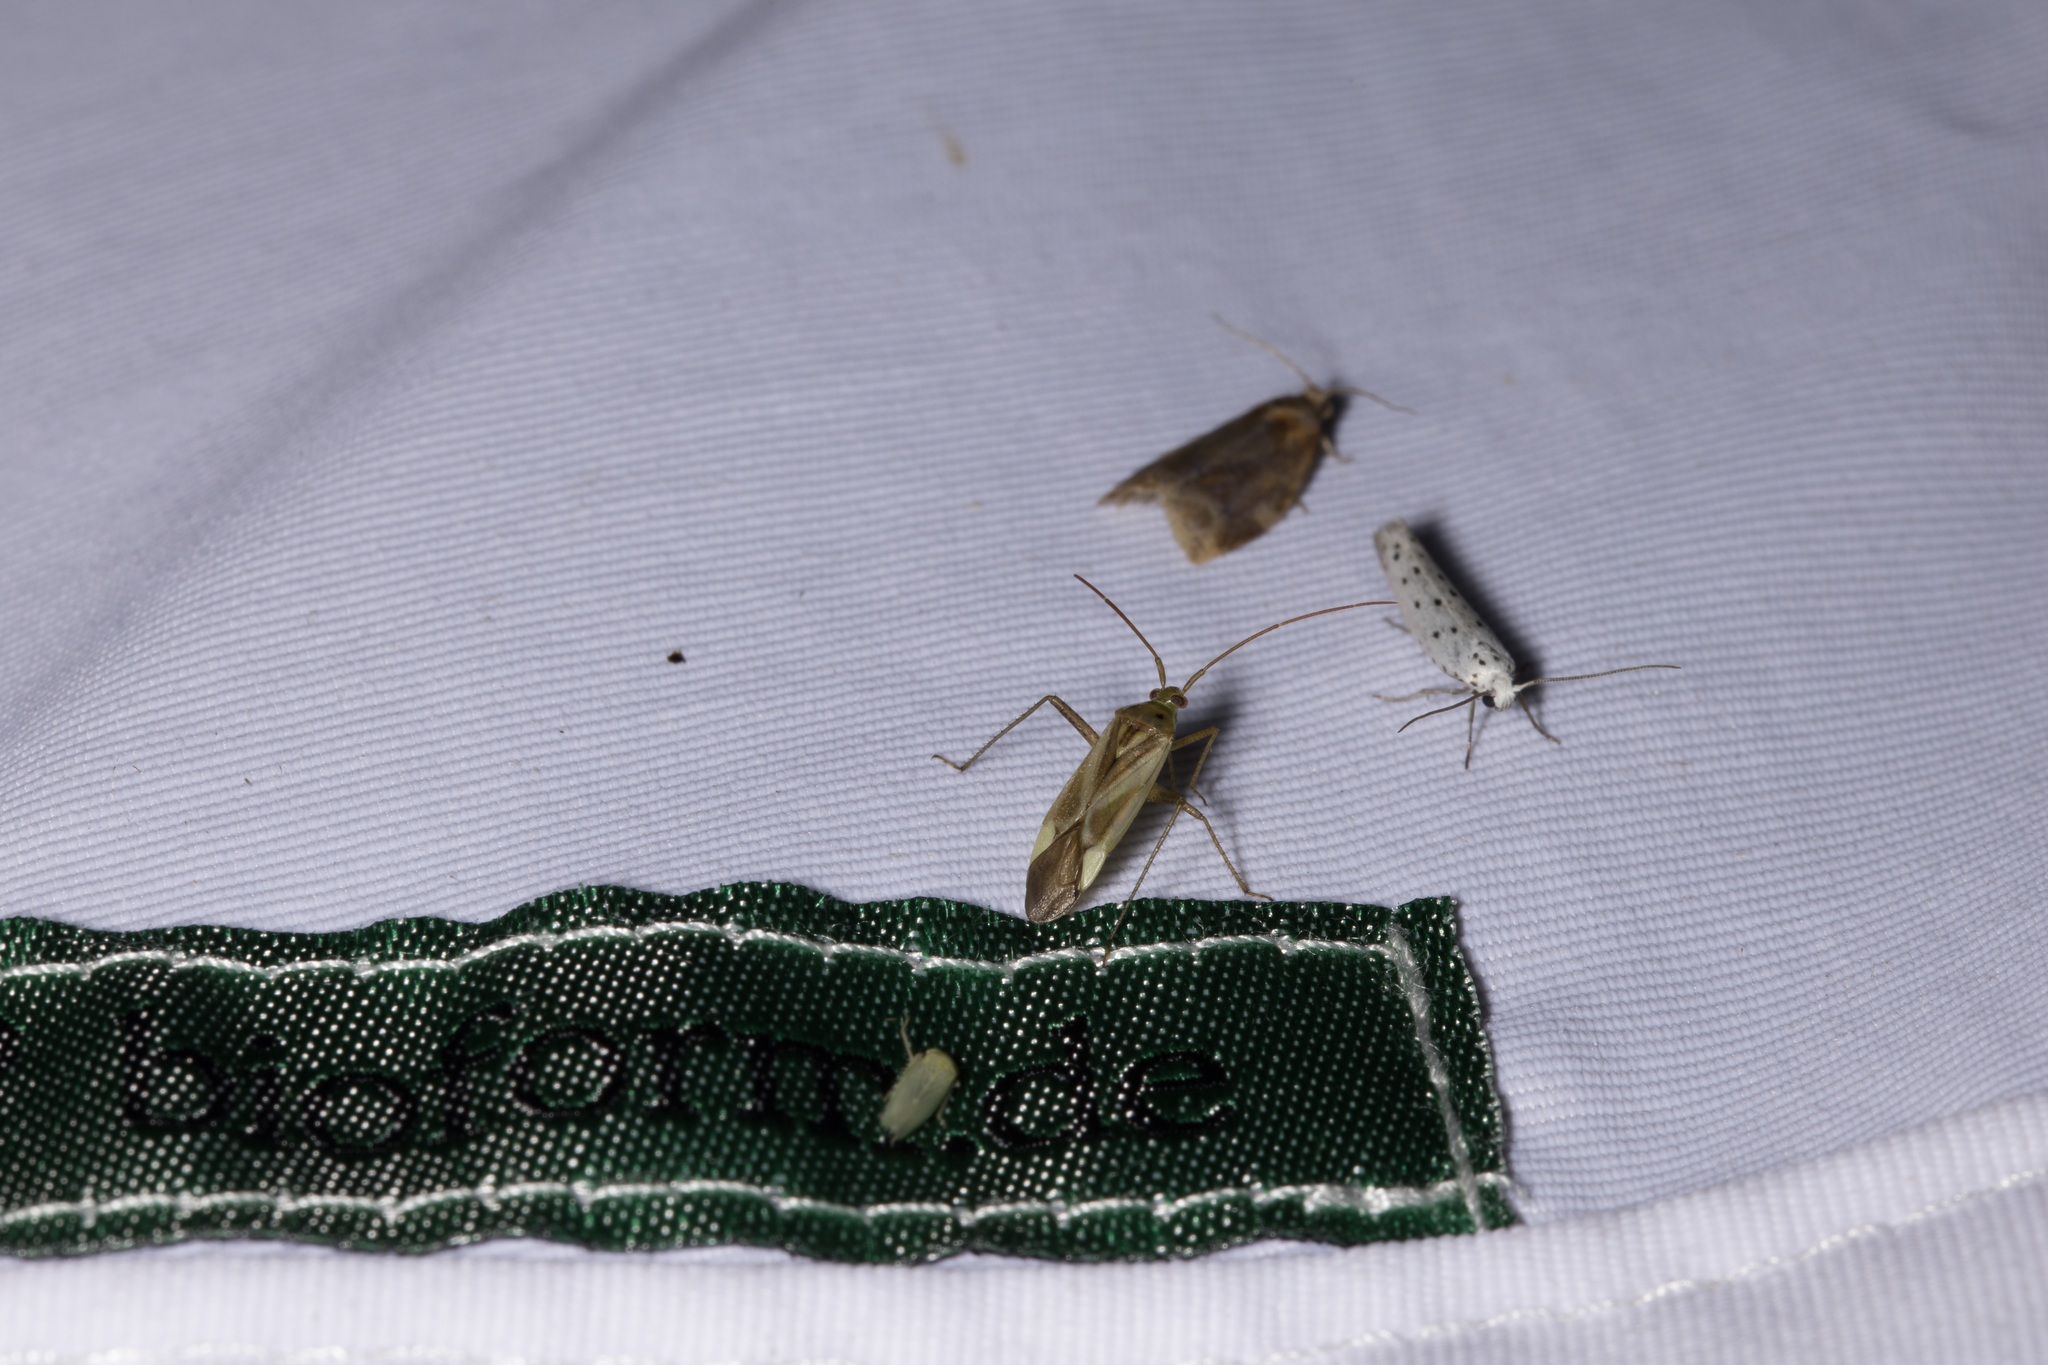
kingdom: Animalia
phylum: Arthropoda
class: Insecta
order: Hemiptera
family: Miridae
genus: Adelphocoris
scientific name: Adelphocoris lineolatus
